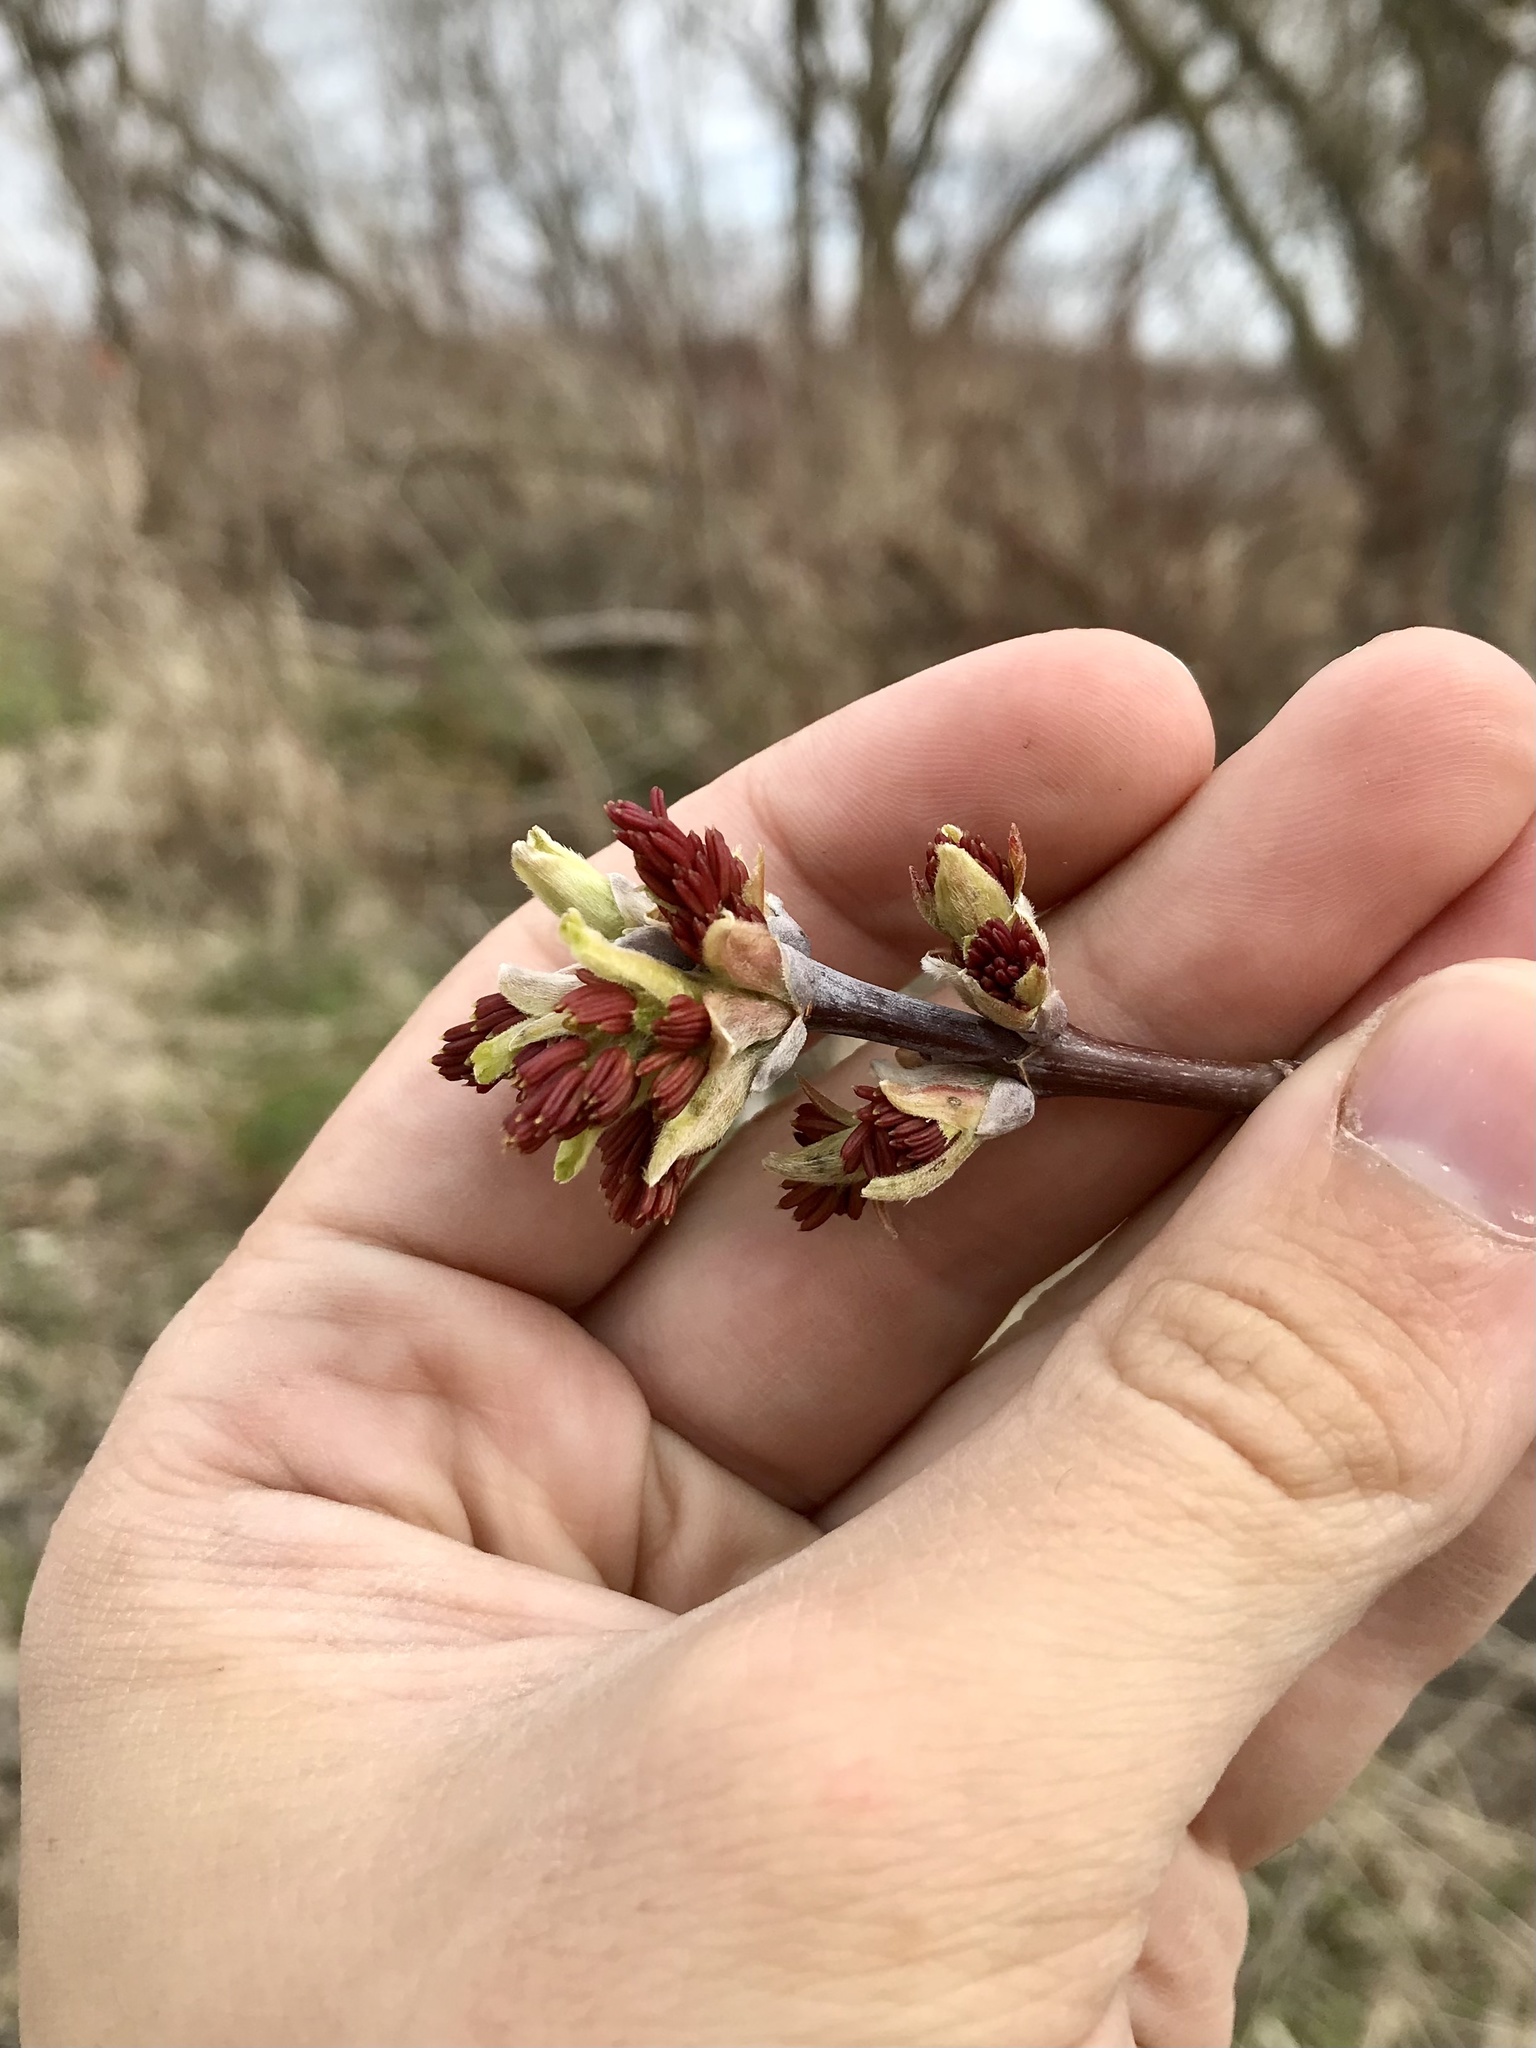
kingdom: Plantae
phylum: Tracheophyta
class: Magnoliopsida
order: Sapindales
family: Sapindaceae
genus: Acer
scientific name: Acer negundo
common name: Ashleaf maple
